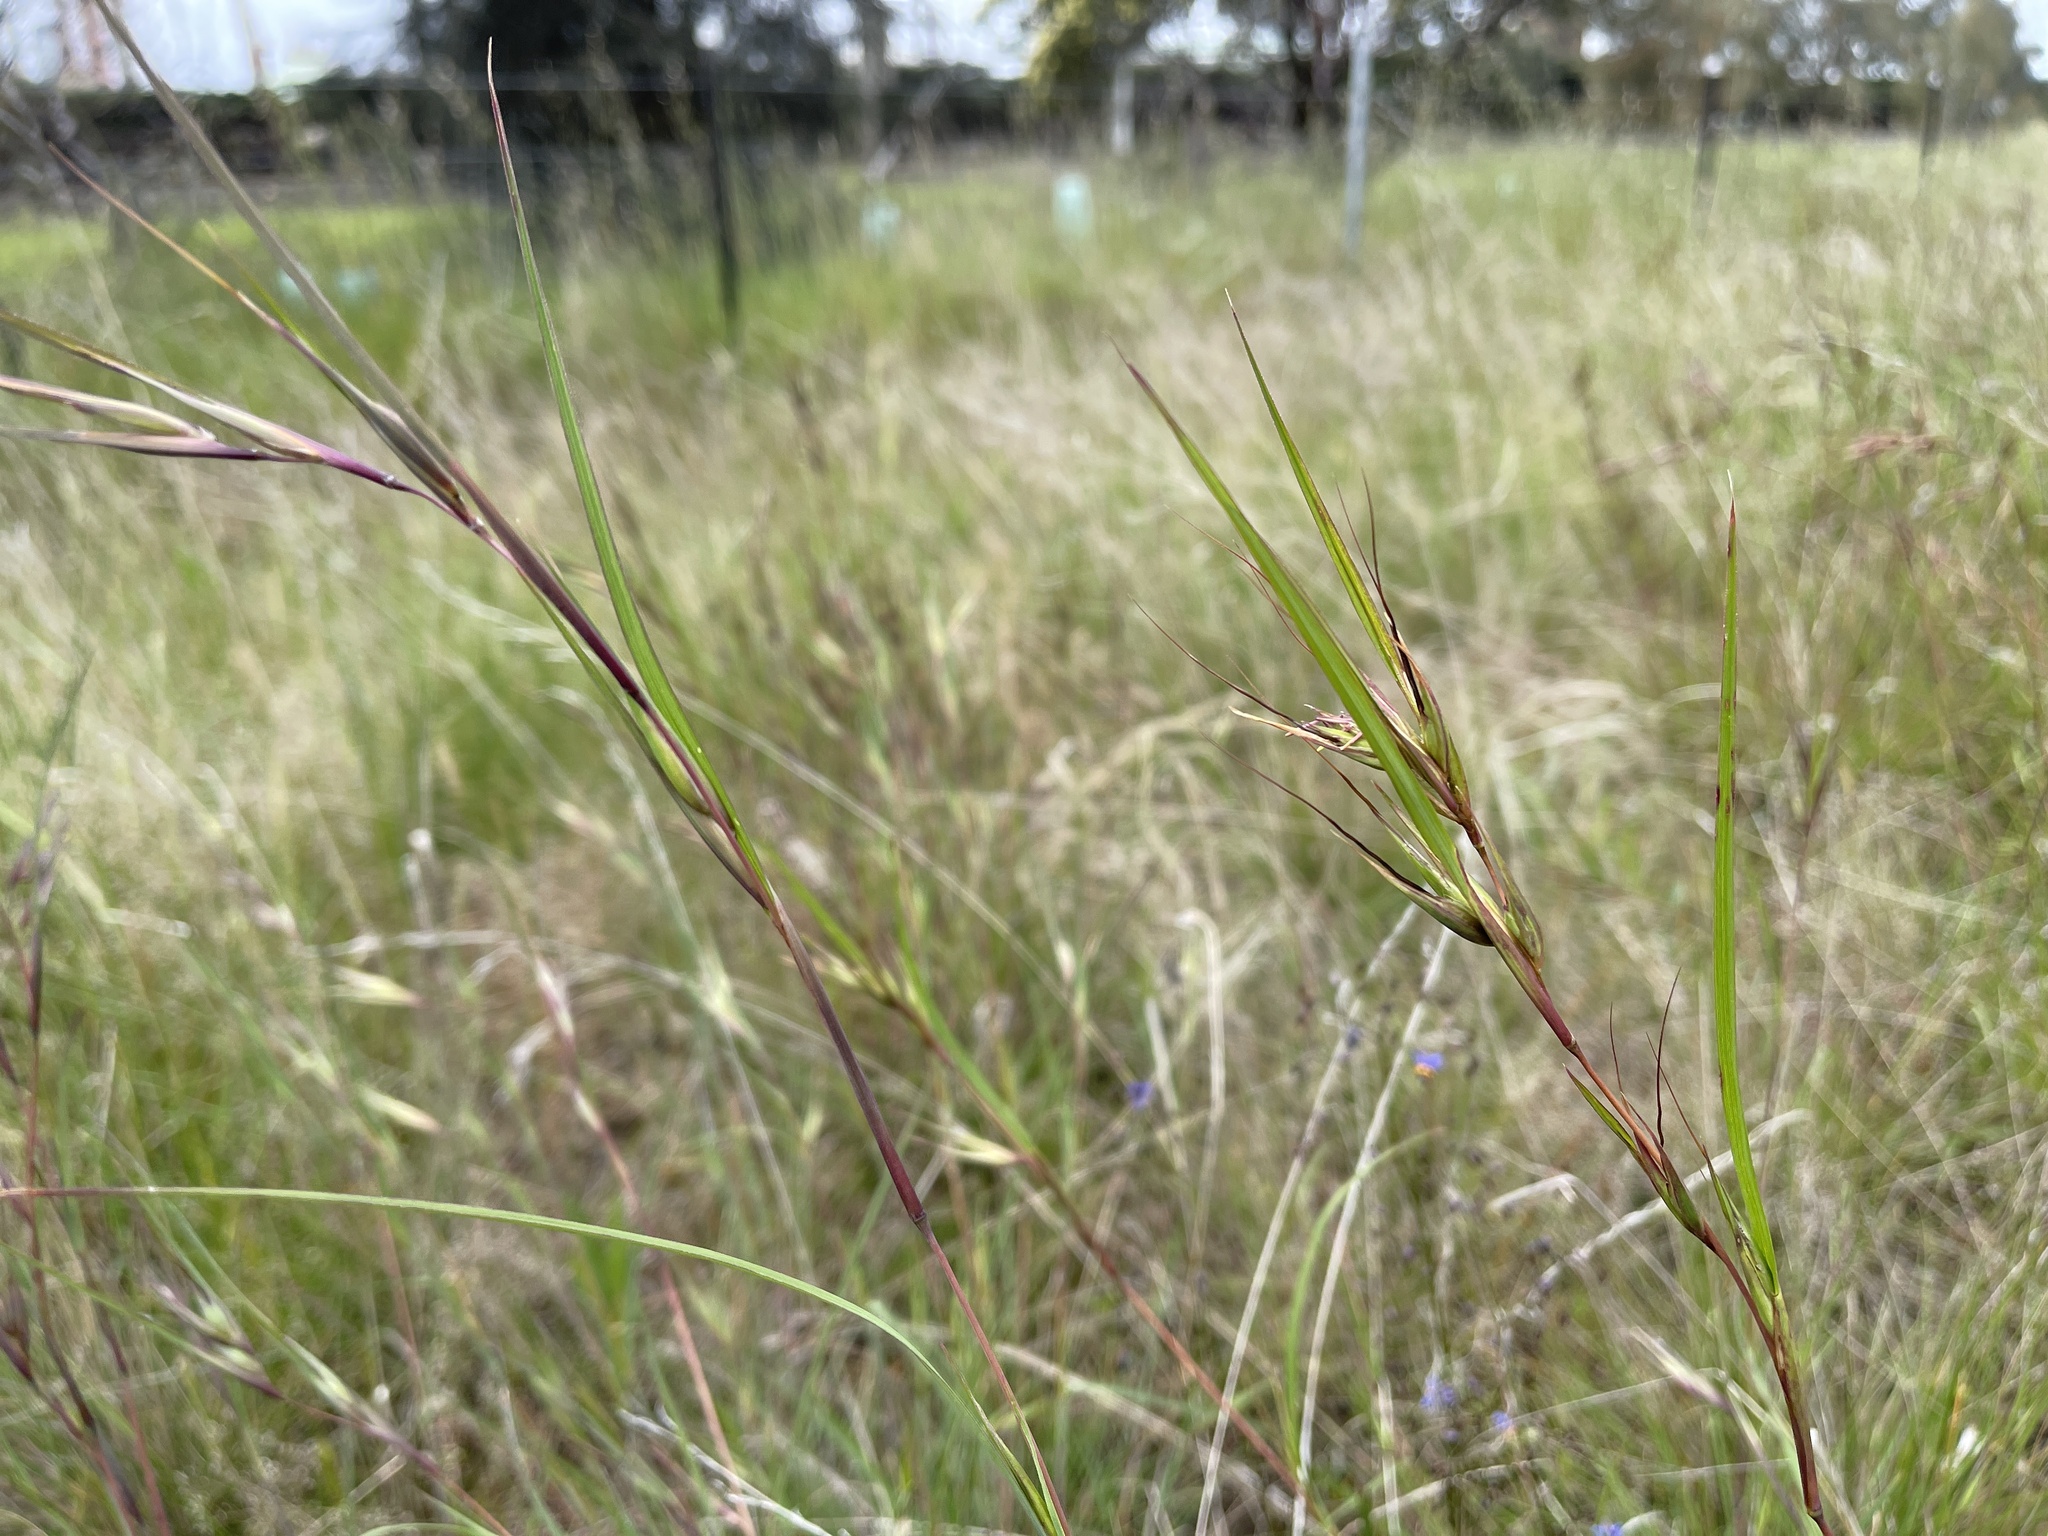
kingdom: Plantae
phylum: Tracheophyta
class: Liliopsida
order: Poales
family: Poaceae
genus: Themeda
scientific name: Themeda triandra
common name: Kangaroo grass
